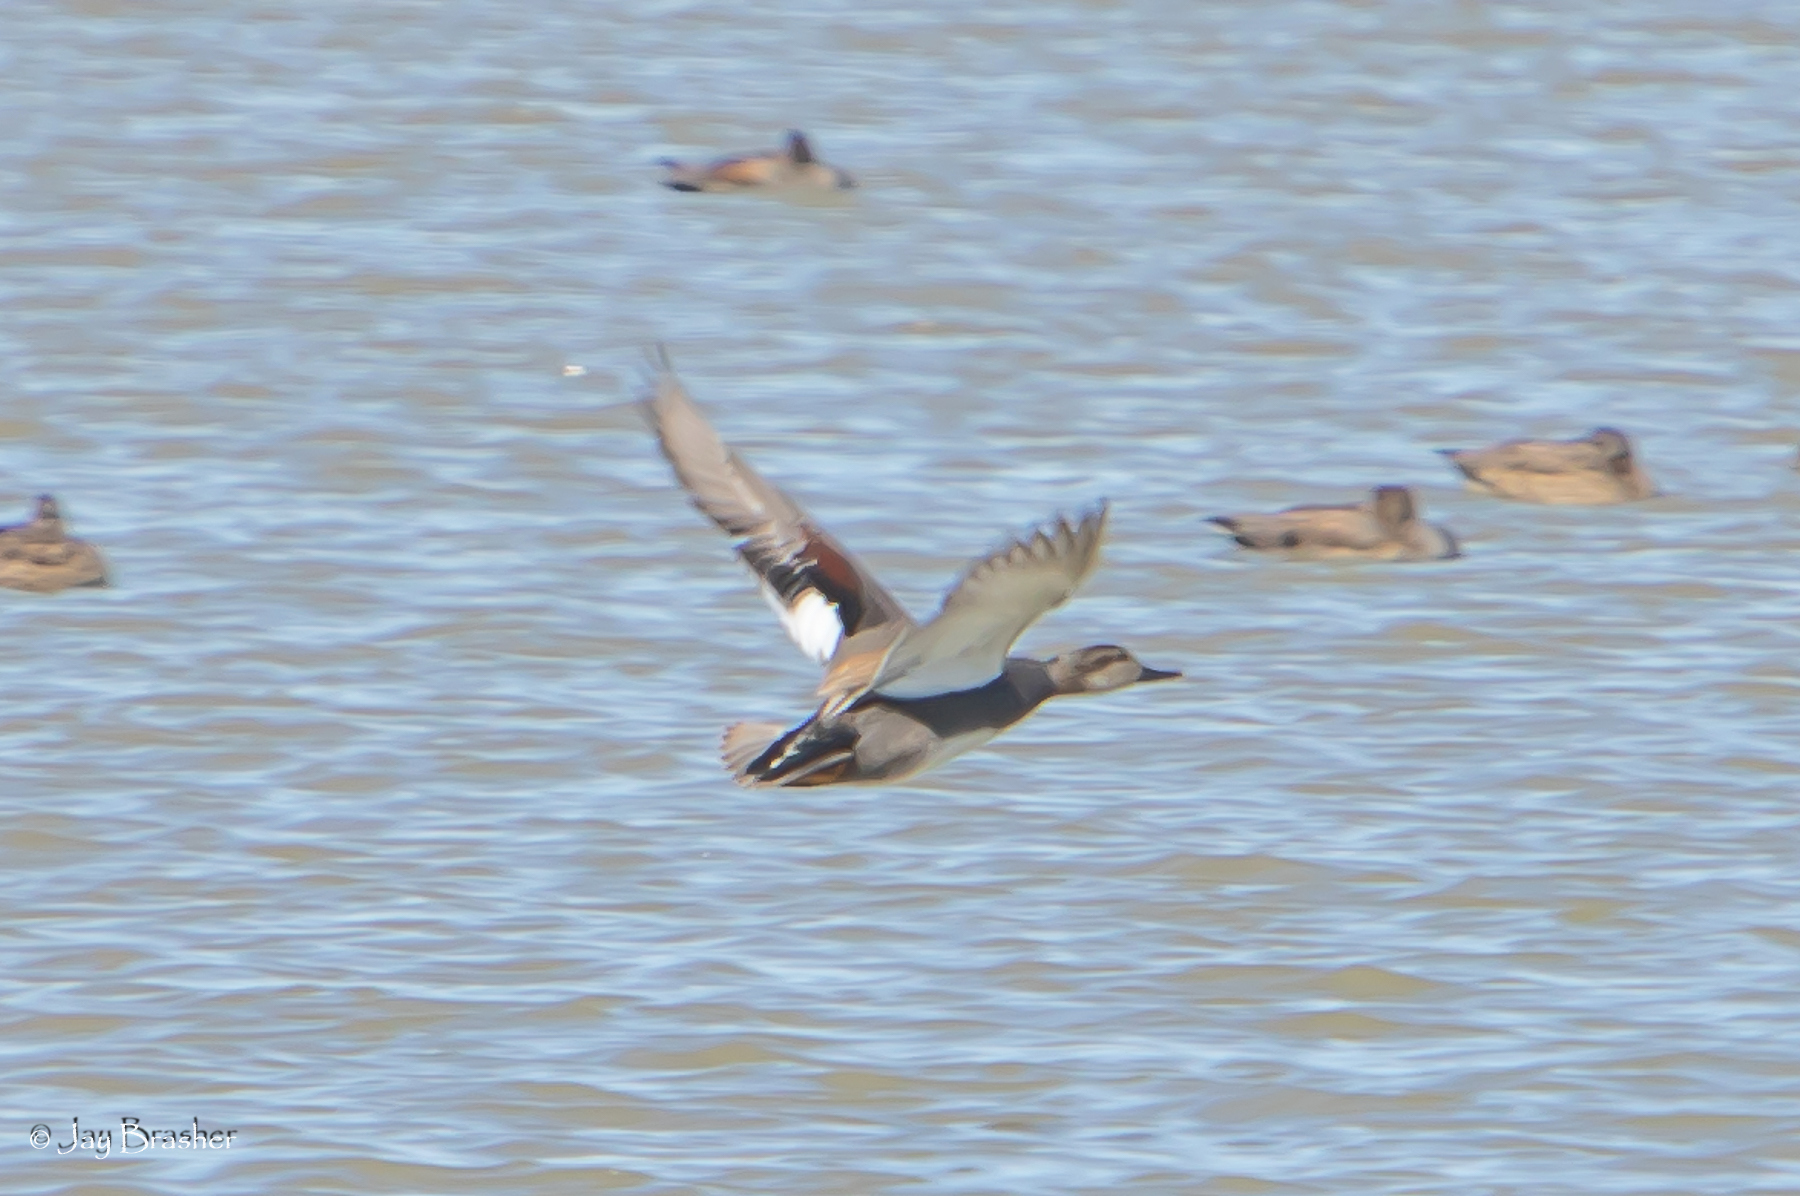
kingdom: Animalia
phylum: Chordata
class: Aves
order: Anseriformes
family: Anatidae
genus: Mareca
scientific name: Mareca strepera
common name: Gadwall
